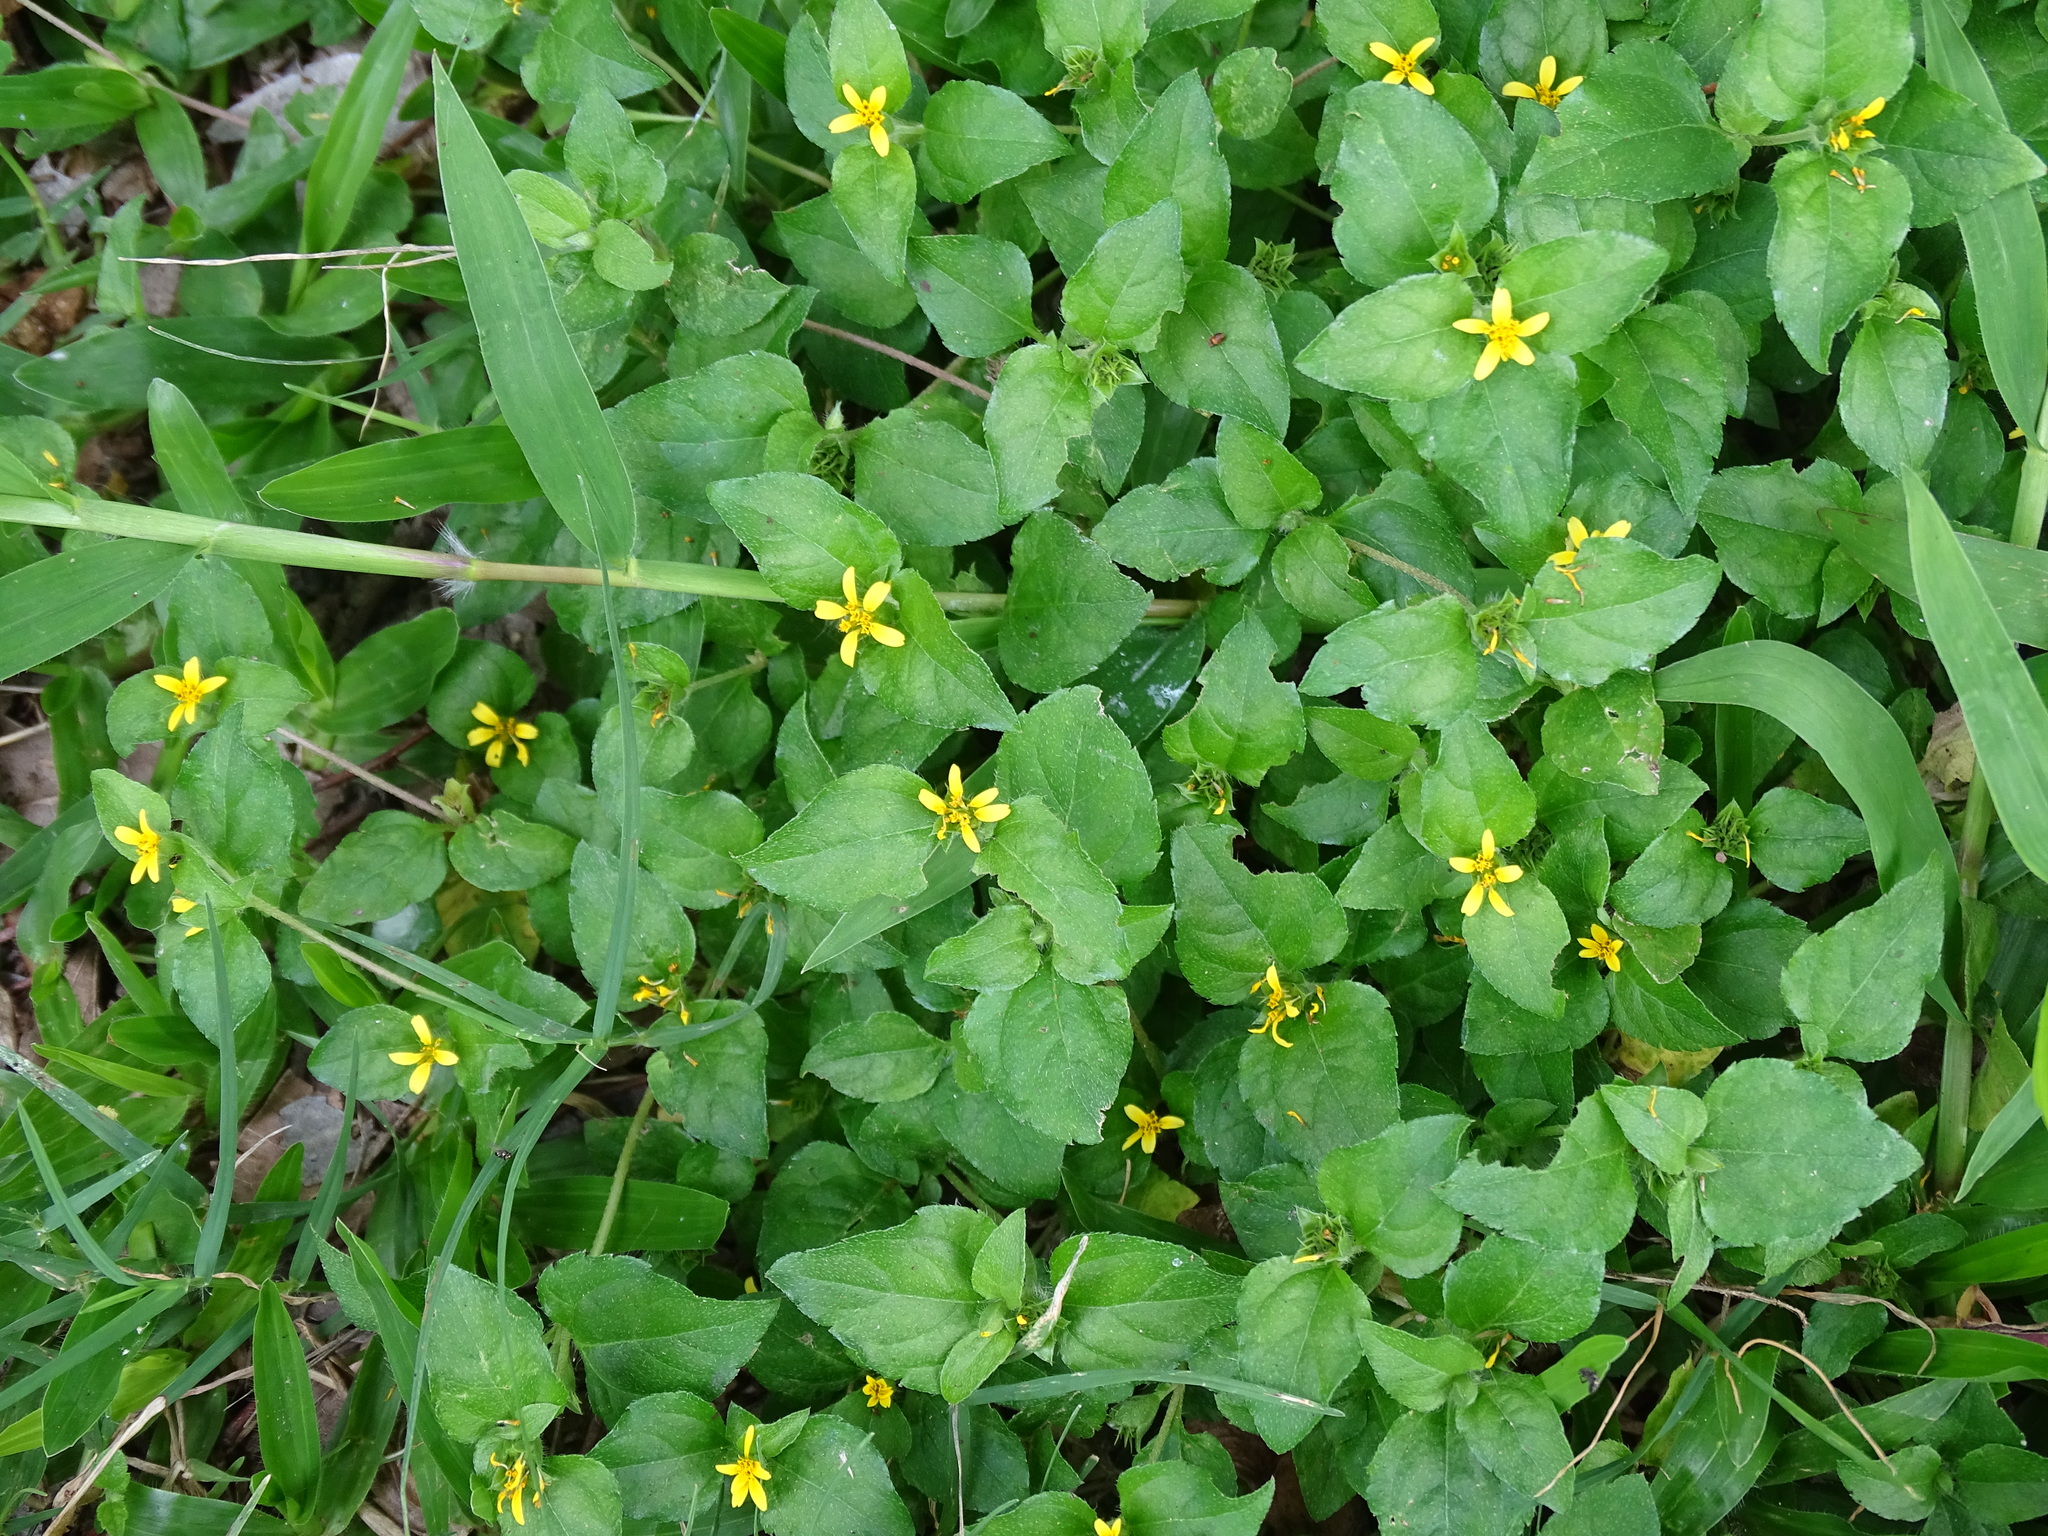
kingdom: Plantae
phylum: Tracheophyta
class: Magnoliopsida
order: Asterales
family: Asteraceae
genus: Calyptocarpus
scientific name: Calyptocarpus vialis
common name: Straggler daisy
